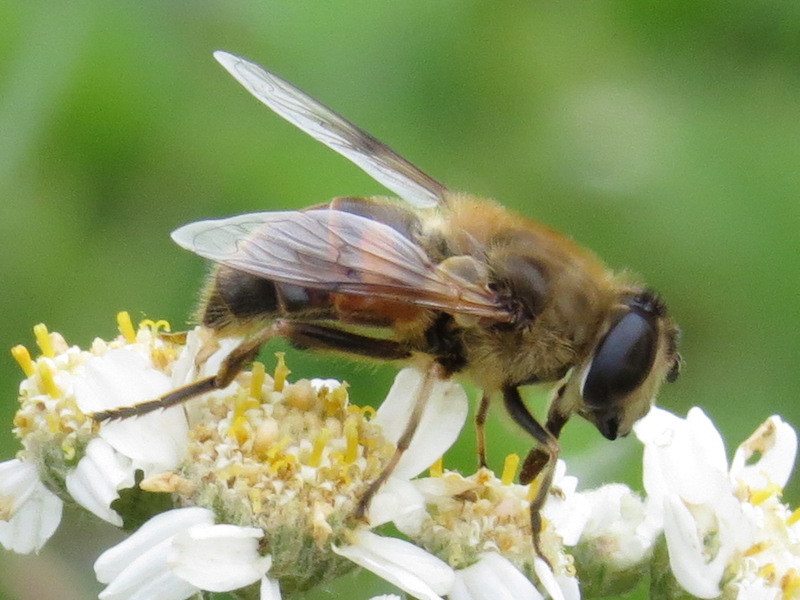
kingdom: Animalia
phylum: Arthropoda
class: Insecta
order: Diptera
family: Syrphidae
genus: Eristalis
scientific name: Eristalis tenax
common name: Drone fly
